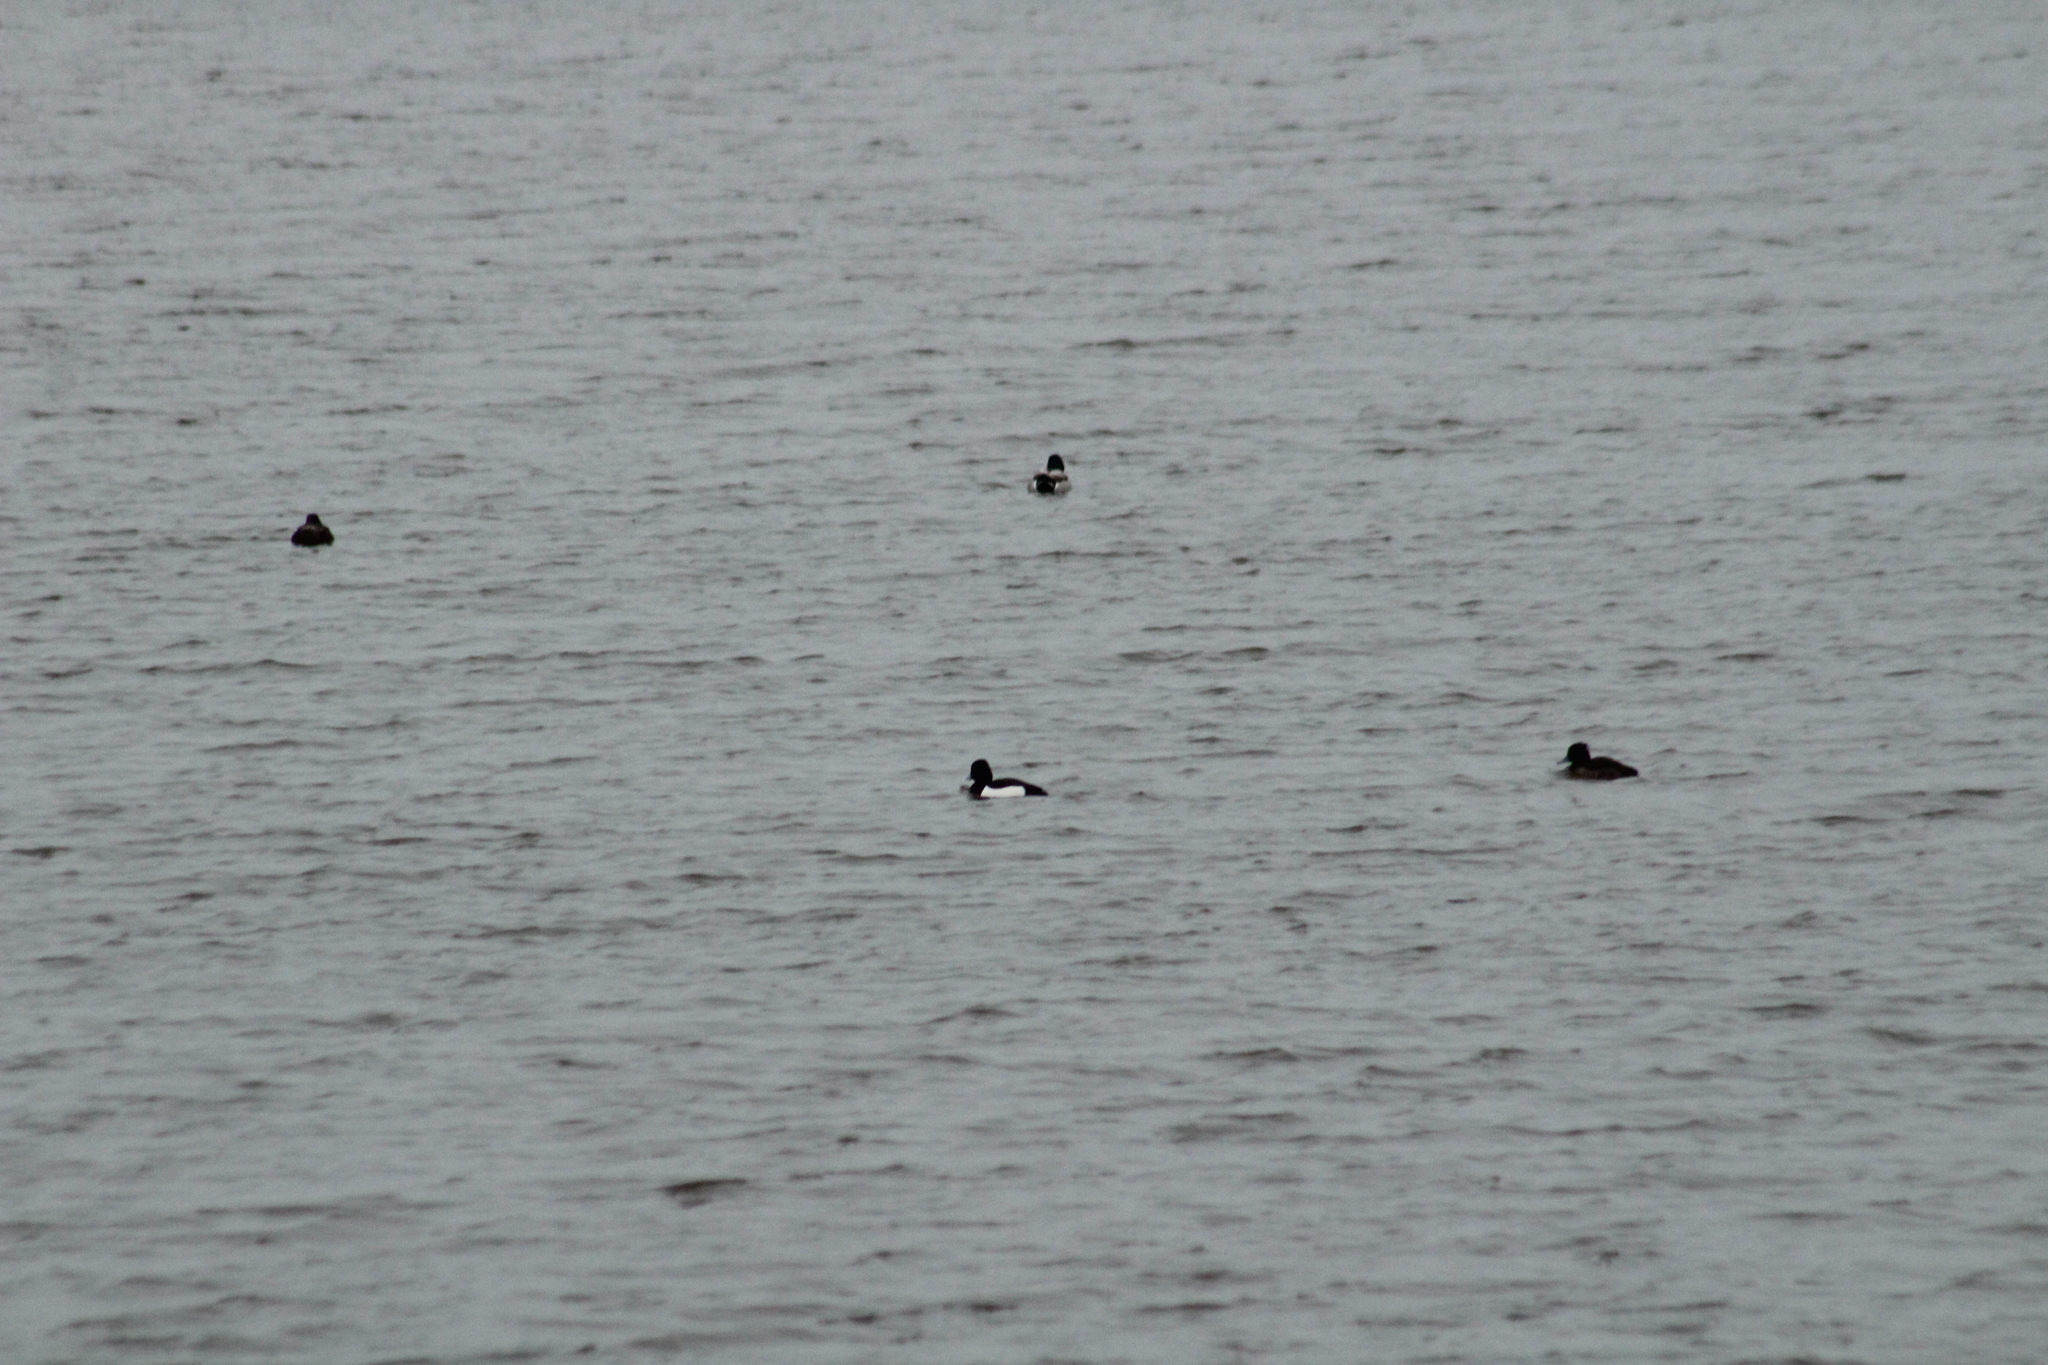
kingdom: Animalia
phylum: Chordata
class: Aves
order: Anseriformes
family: Anatidae
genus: Aythya
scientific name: Aythya fuligula
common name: Tufted duck
